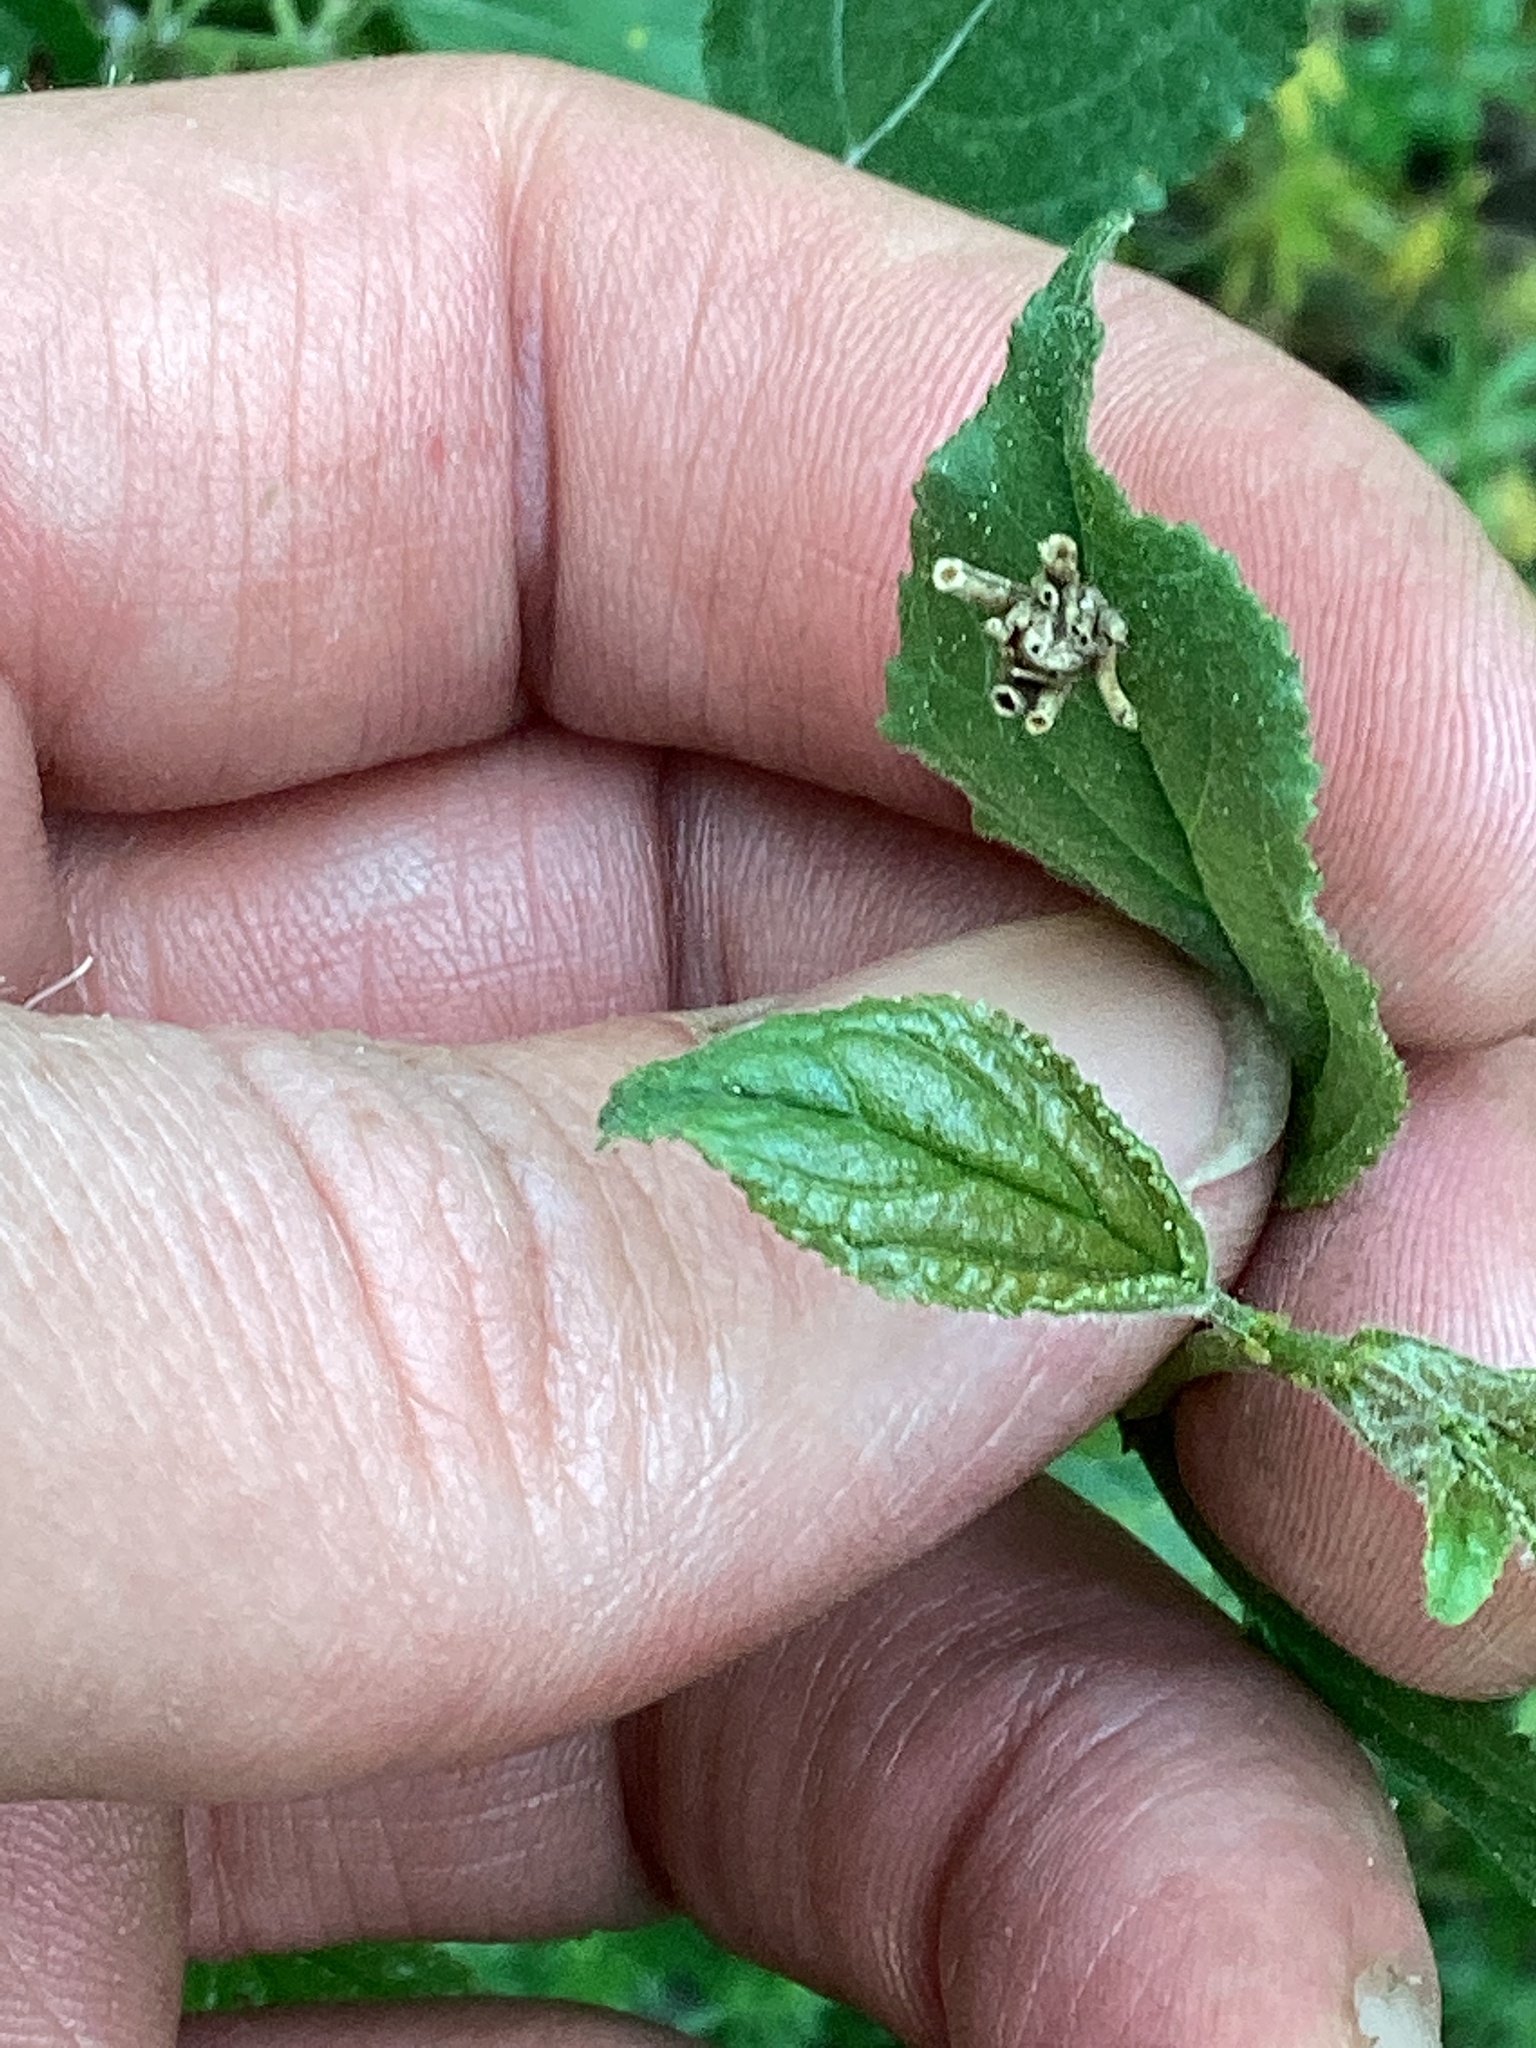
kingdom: Animalia
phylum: Arthropoda
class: Insecta
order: Lepidoptera
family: Psychidae
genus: Psyche
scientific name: Psyche casta
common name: Common sweep
